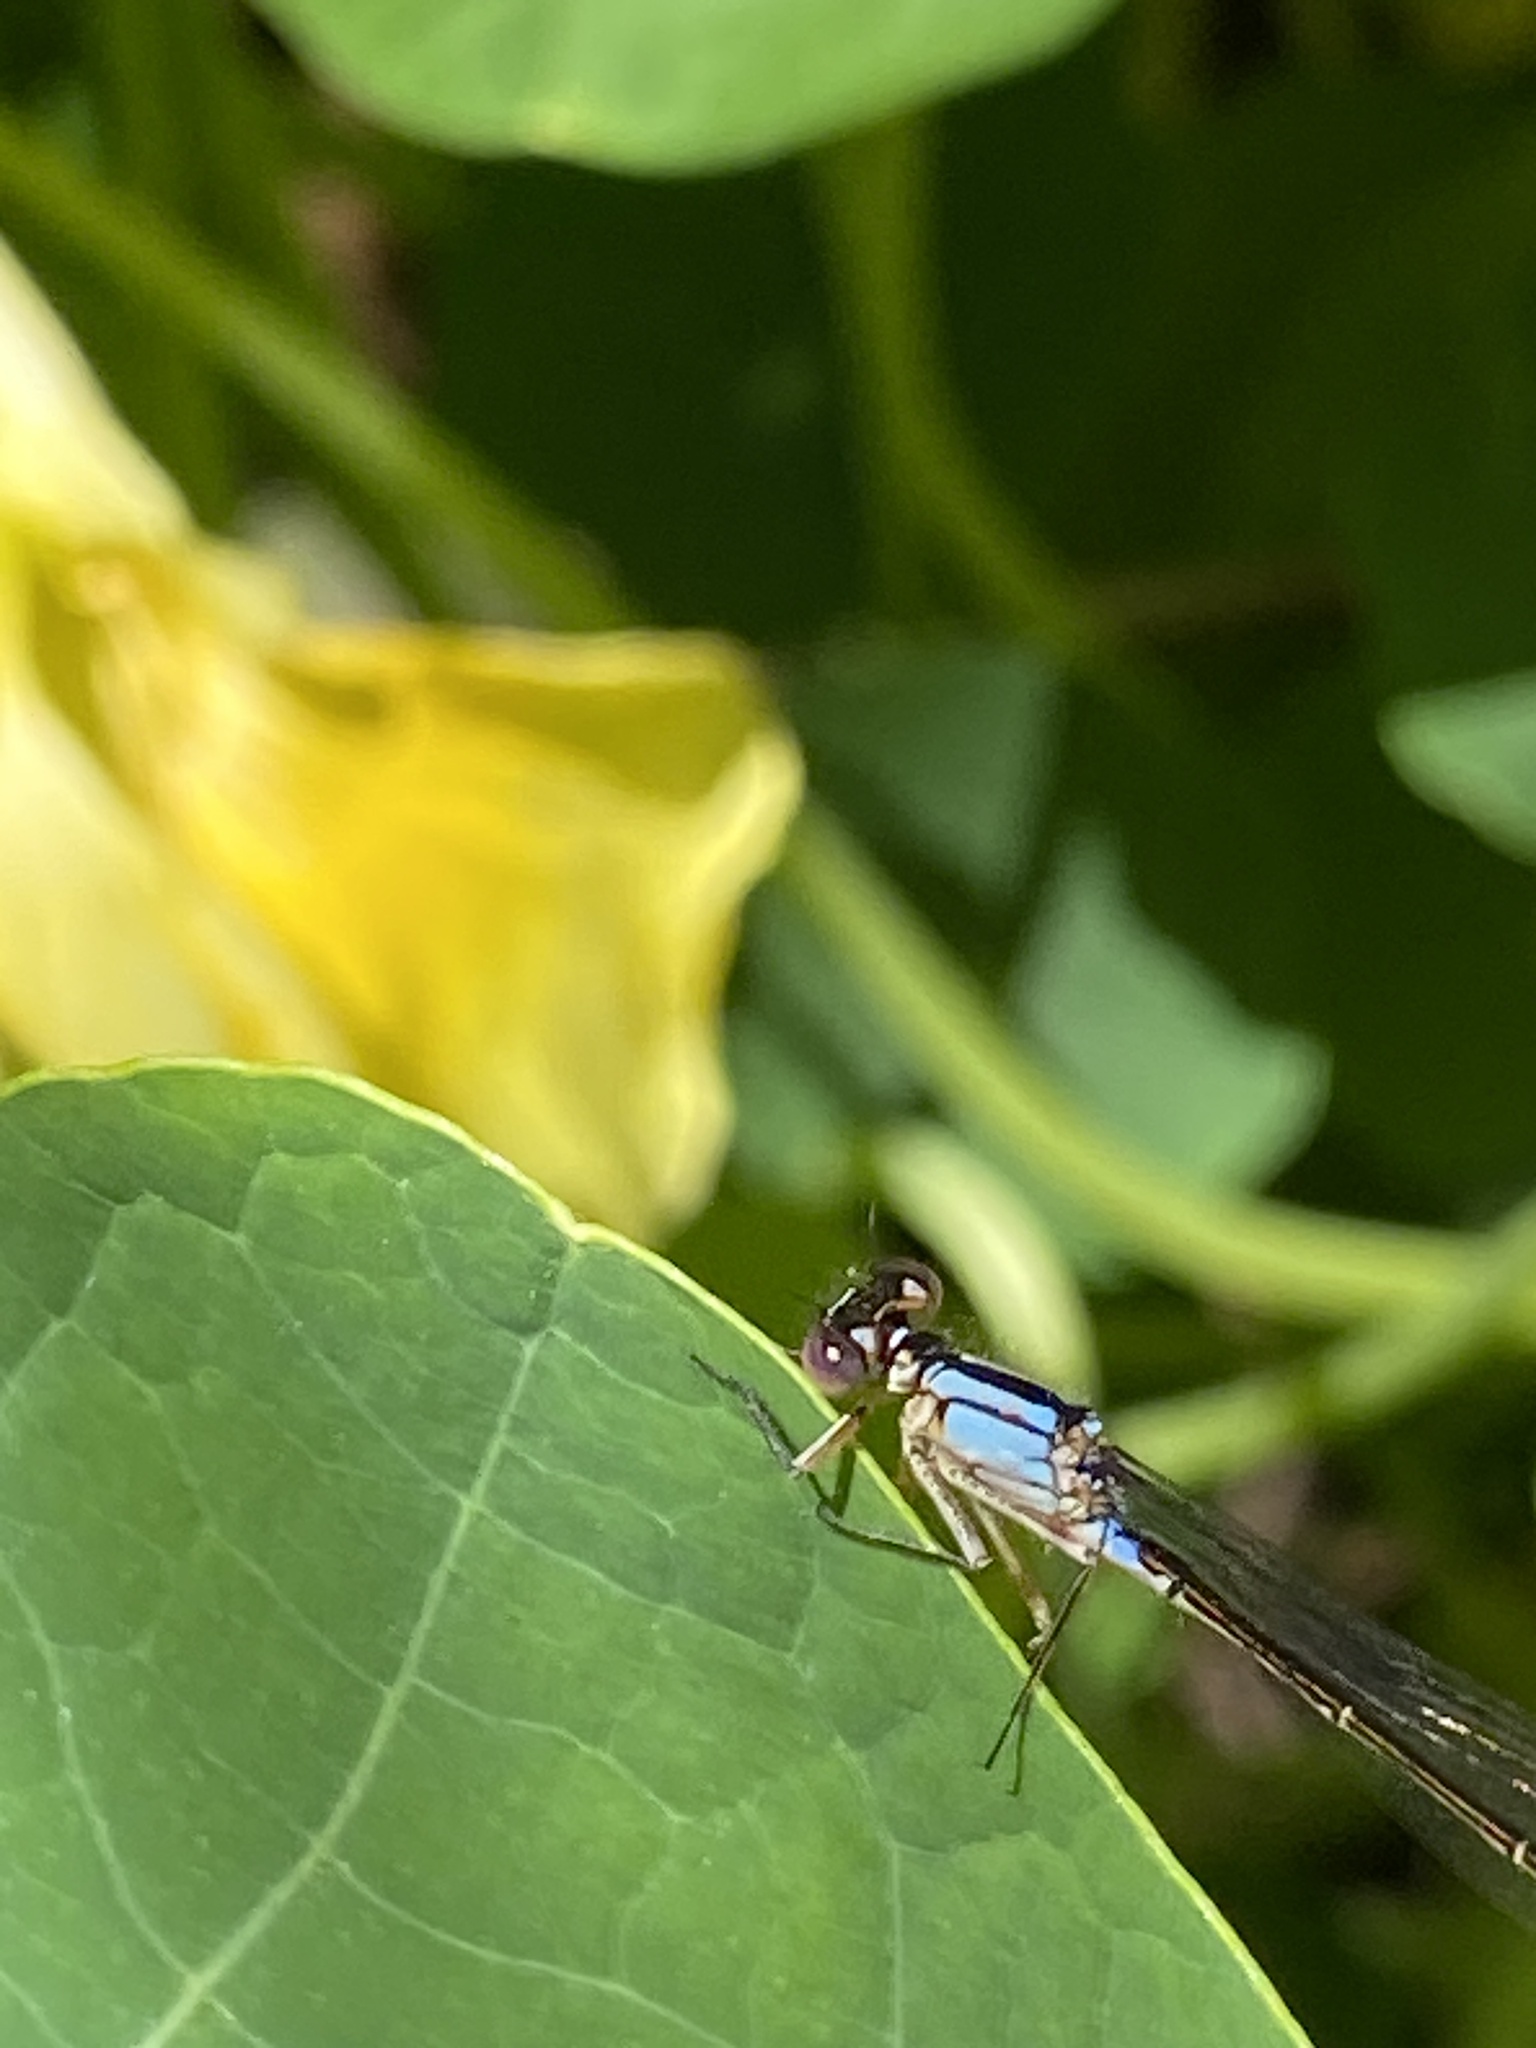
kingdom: Animalia
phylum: Arthropoda
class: Insecta
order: Odonata
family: Coenagrionidae
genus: Ischnura
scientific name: Ischnura cervula
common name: Pacific forktail
